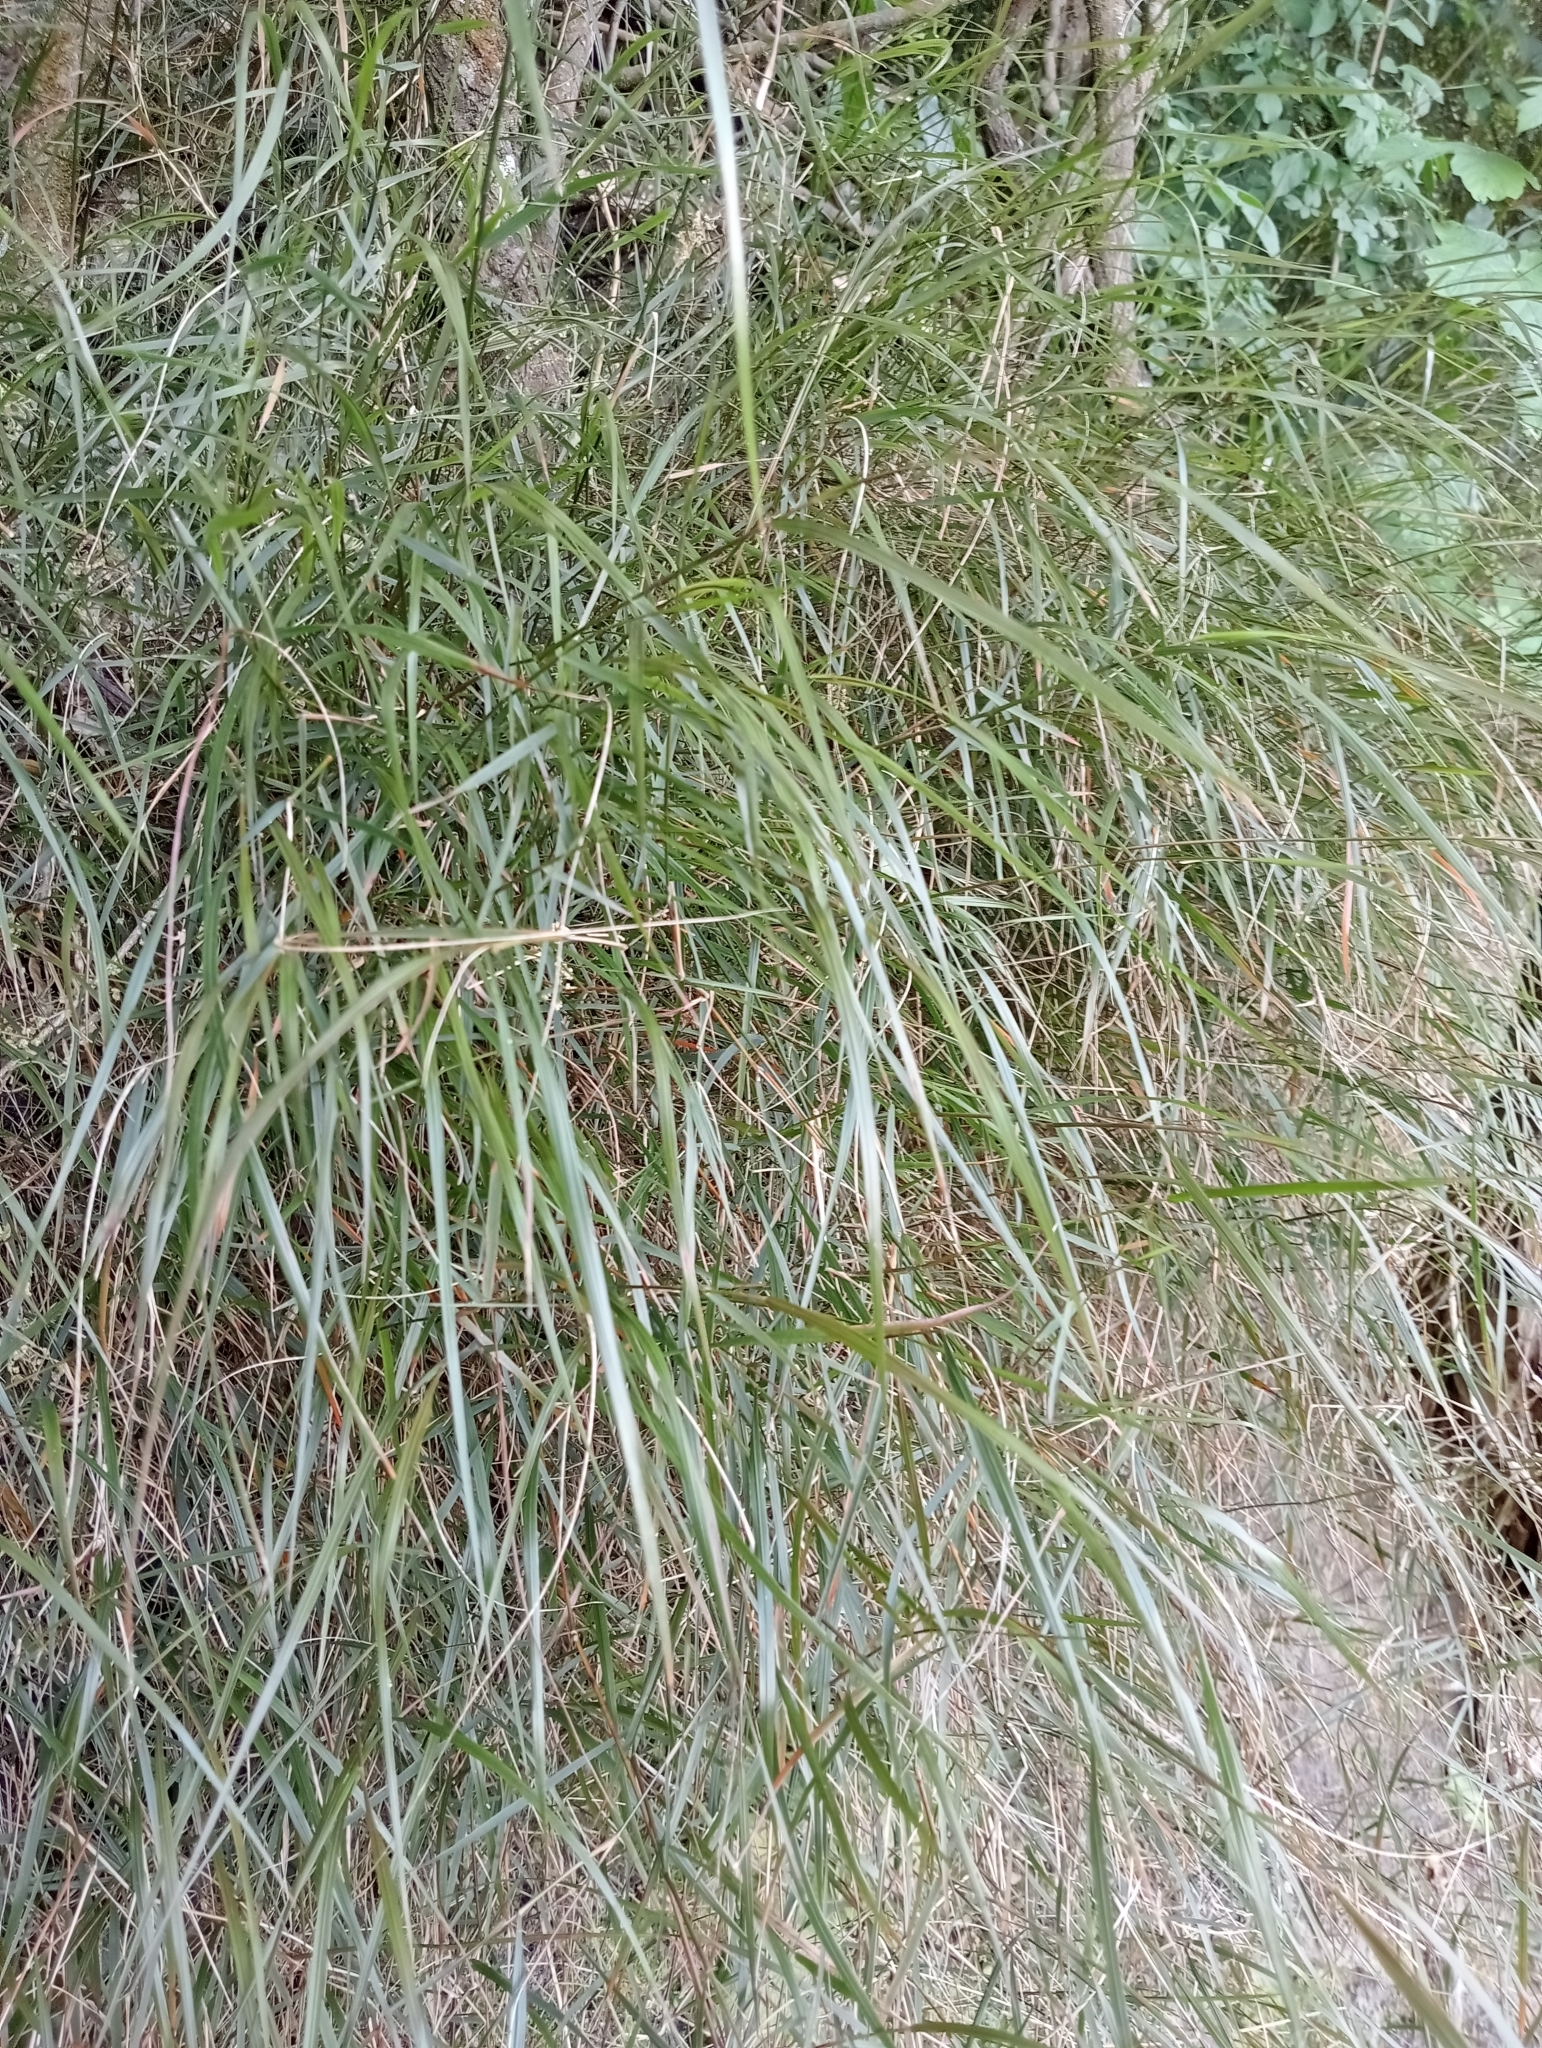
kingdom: Plantae
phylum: Tracheophyta
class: Liliopsida
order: Poales
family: Poaceae
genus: Microlaena
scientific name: Microlaena polynoda
